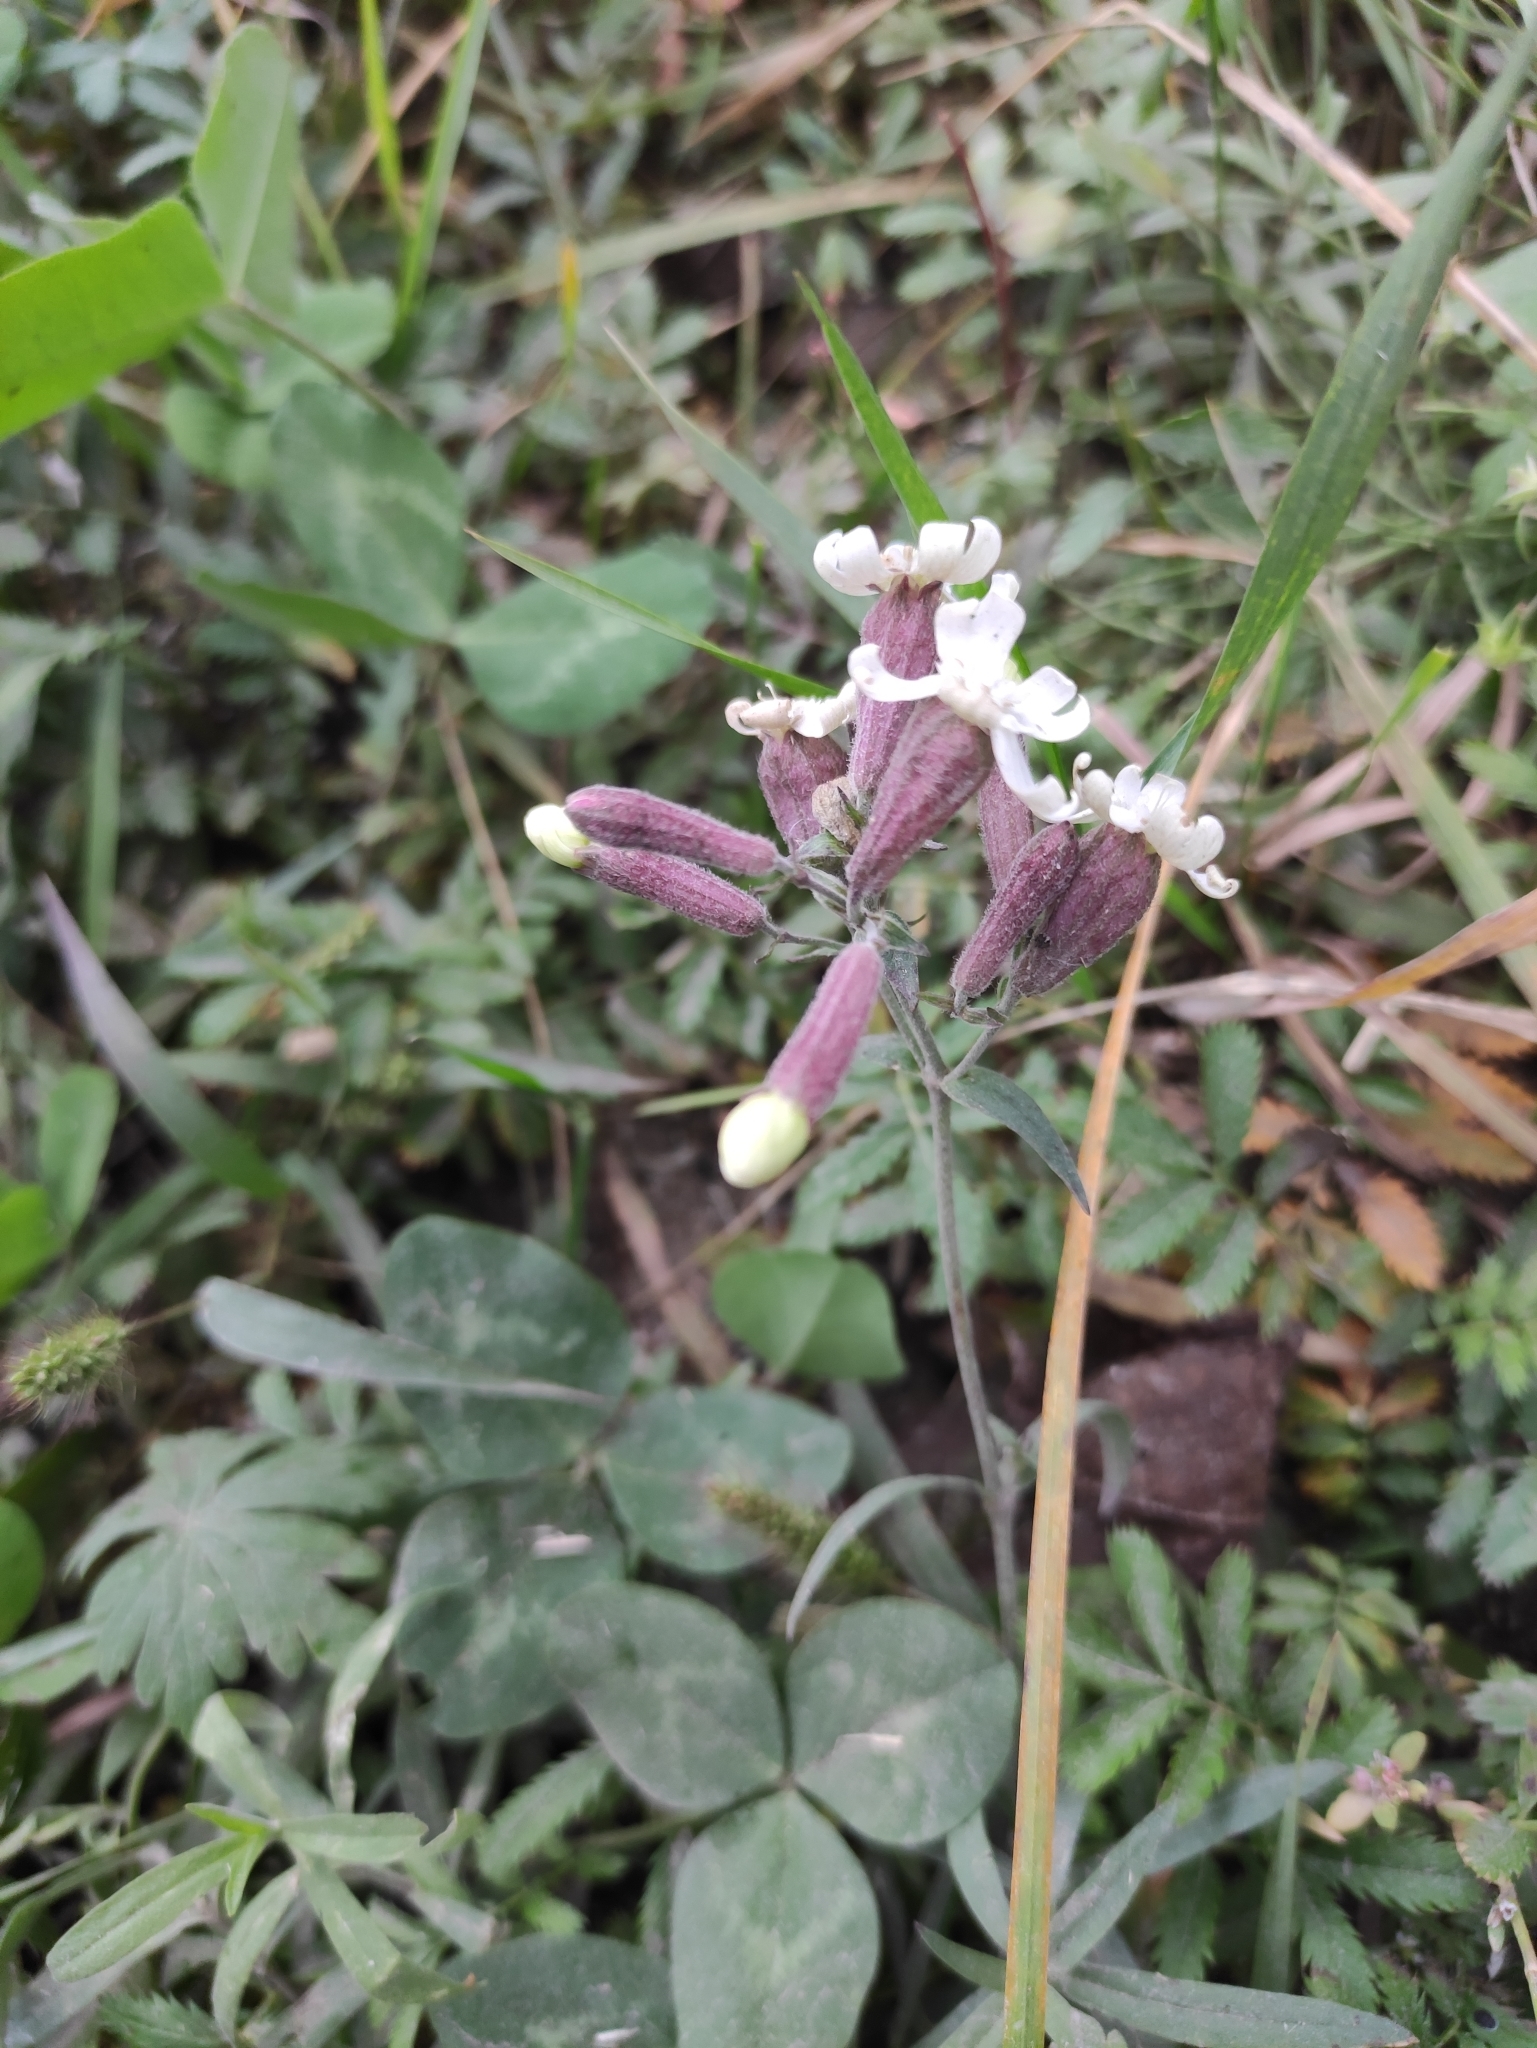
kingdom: Plantae
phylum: Tracheophyta
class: Magnoliopsida
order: Caryophyllales
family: Caryophyllaceae
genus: Silene
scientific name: Silene amoena
